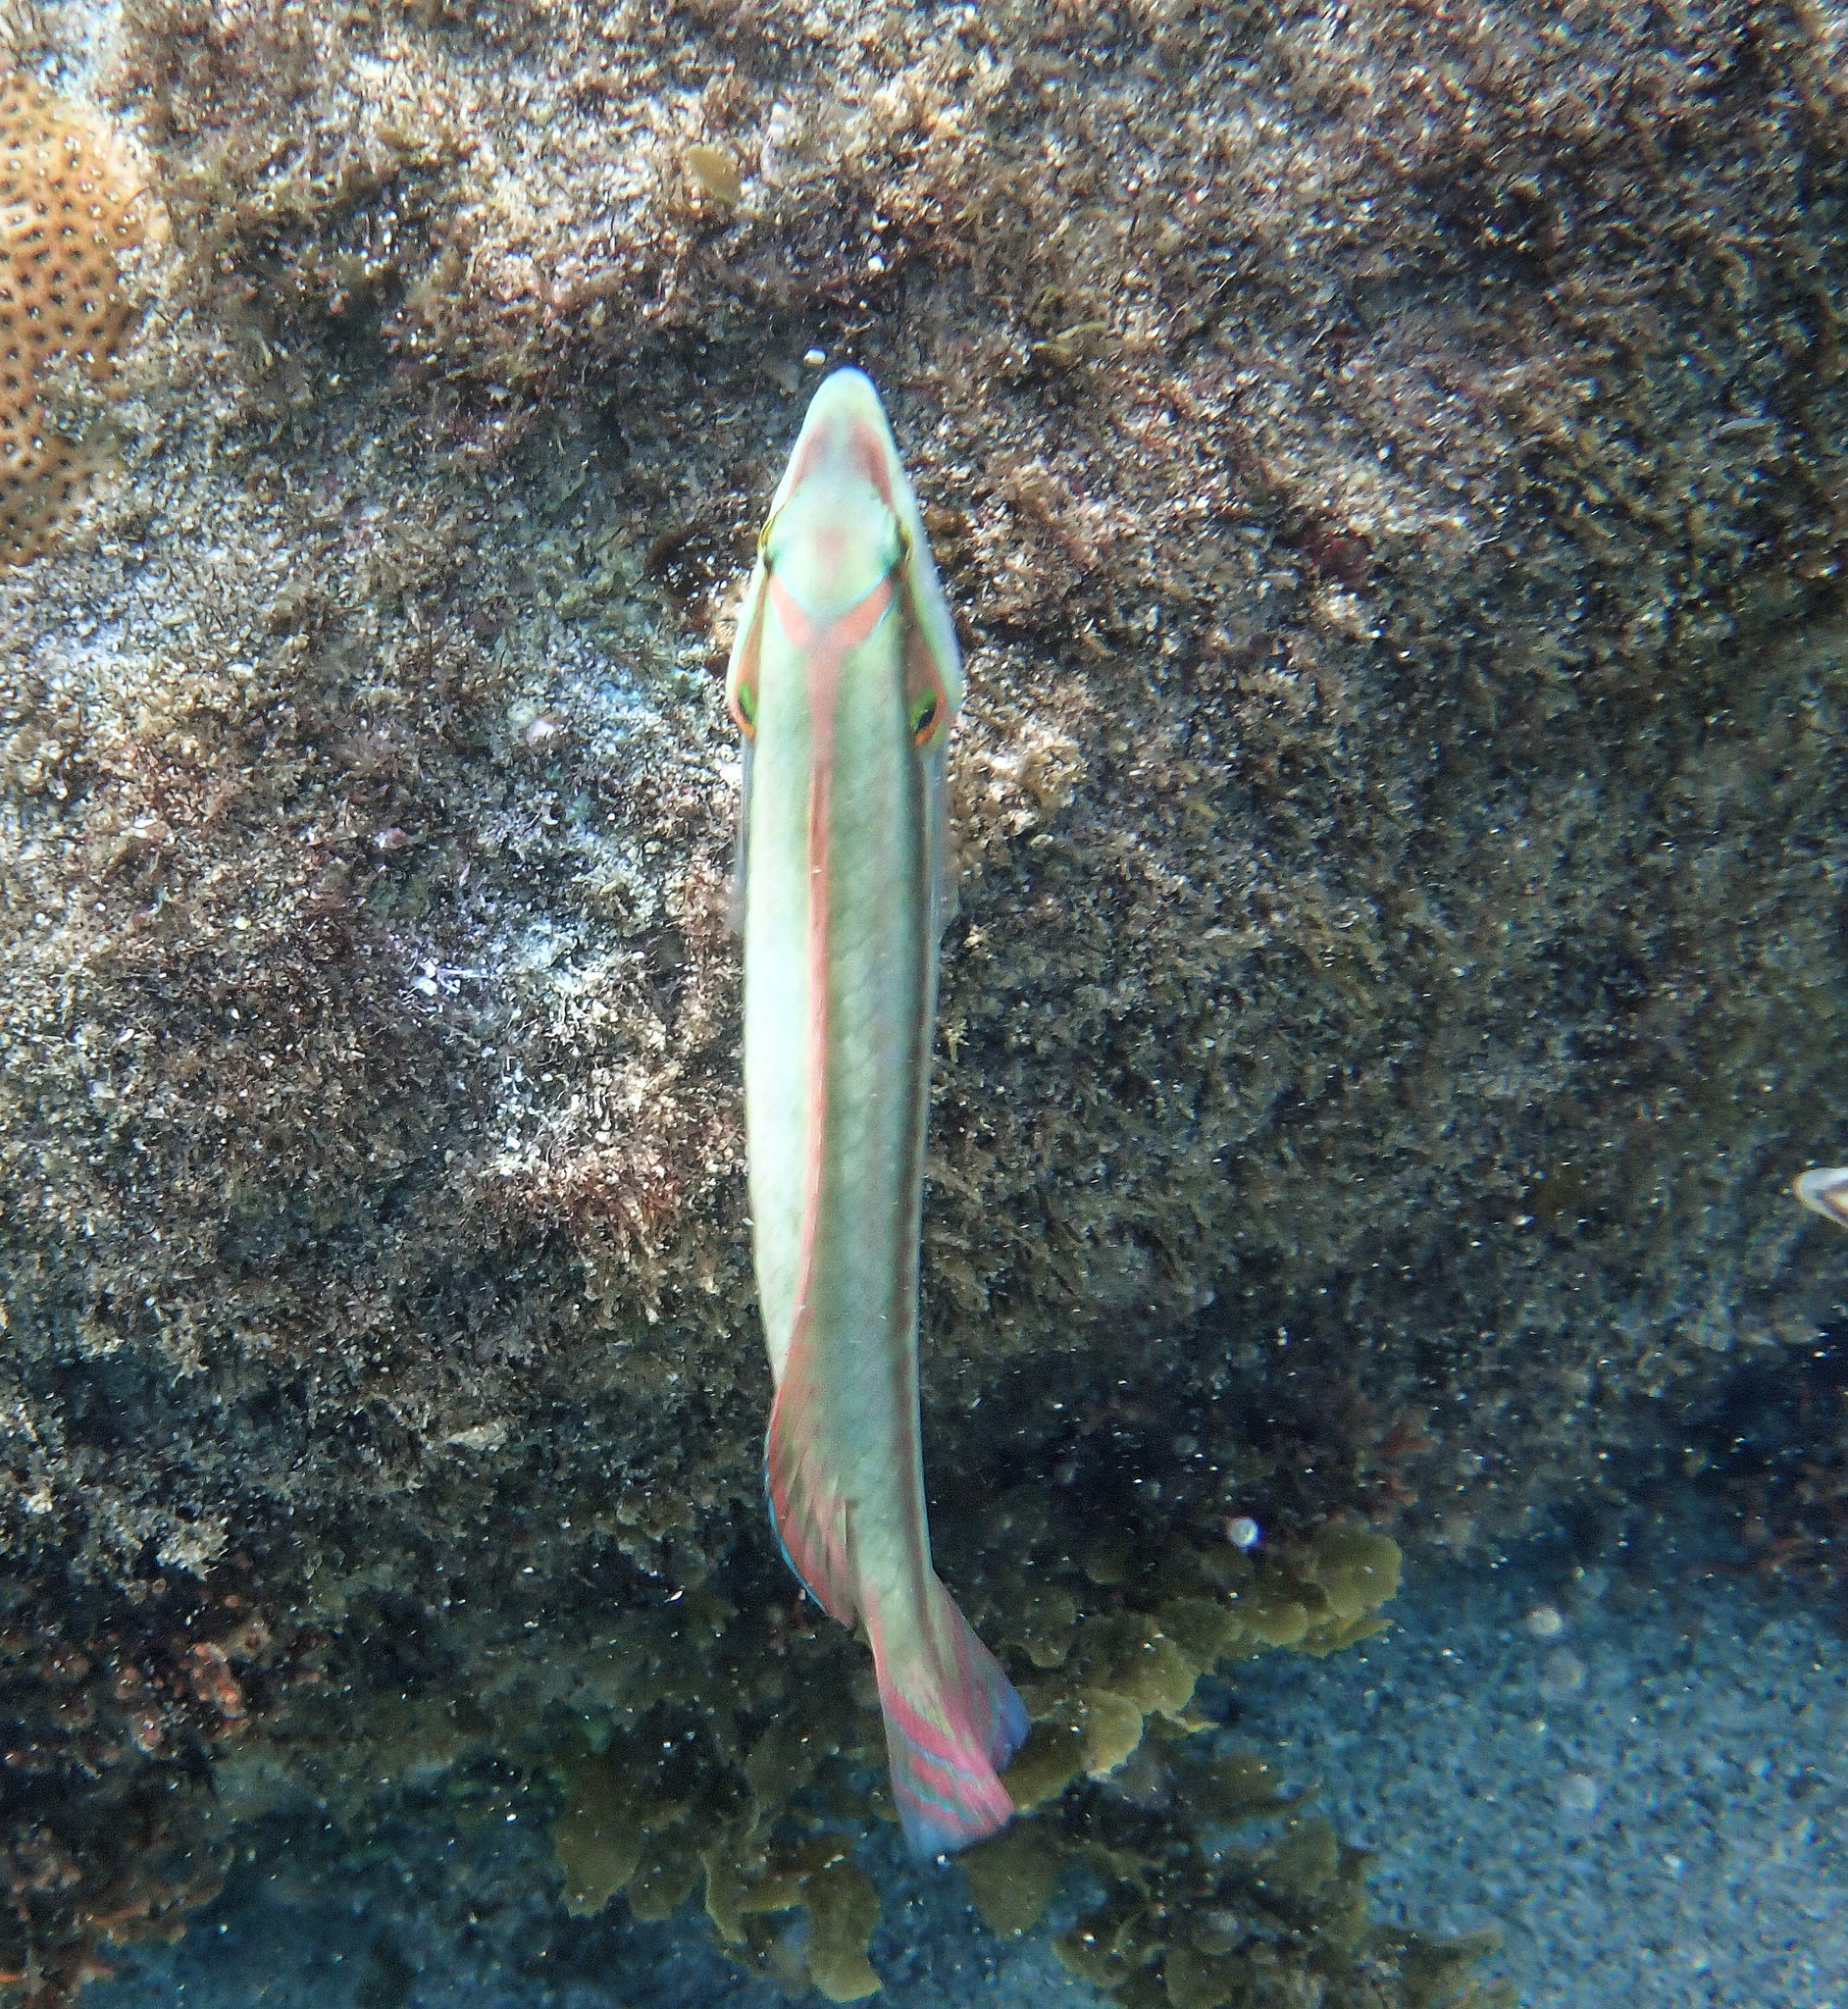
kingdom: Animalia
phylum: Chordata
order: Perciformes
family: Labridae
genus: Halichoeres
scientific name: Halichoeres bivittatus
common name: Slippery dick
